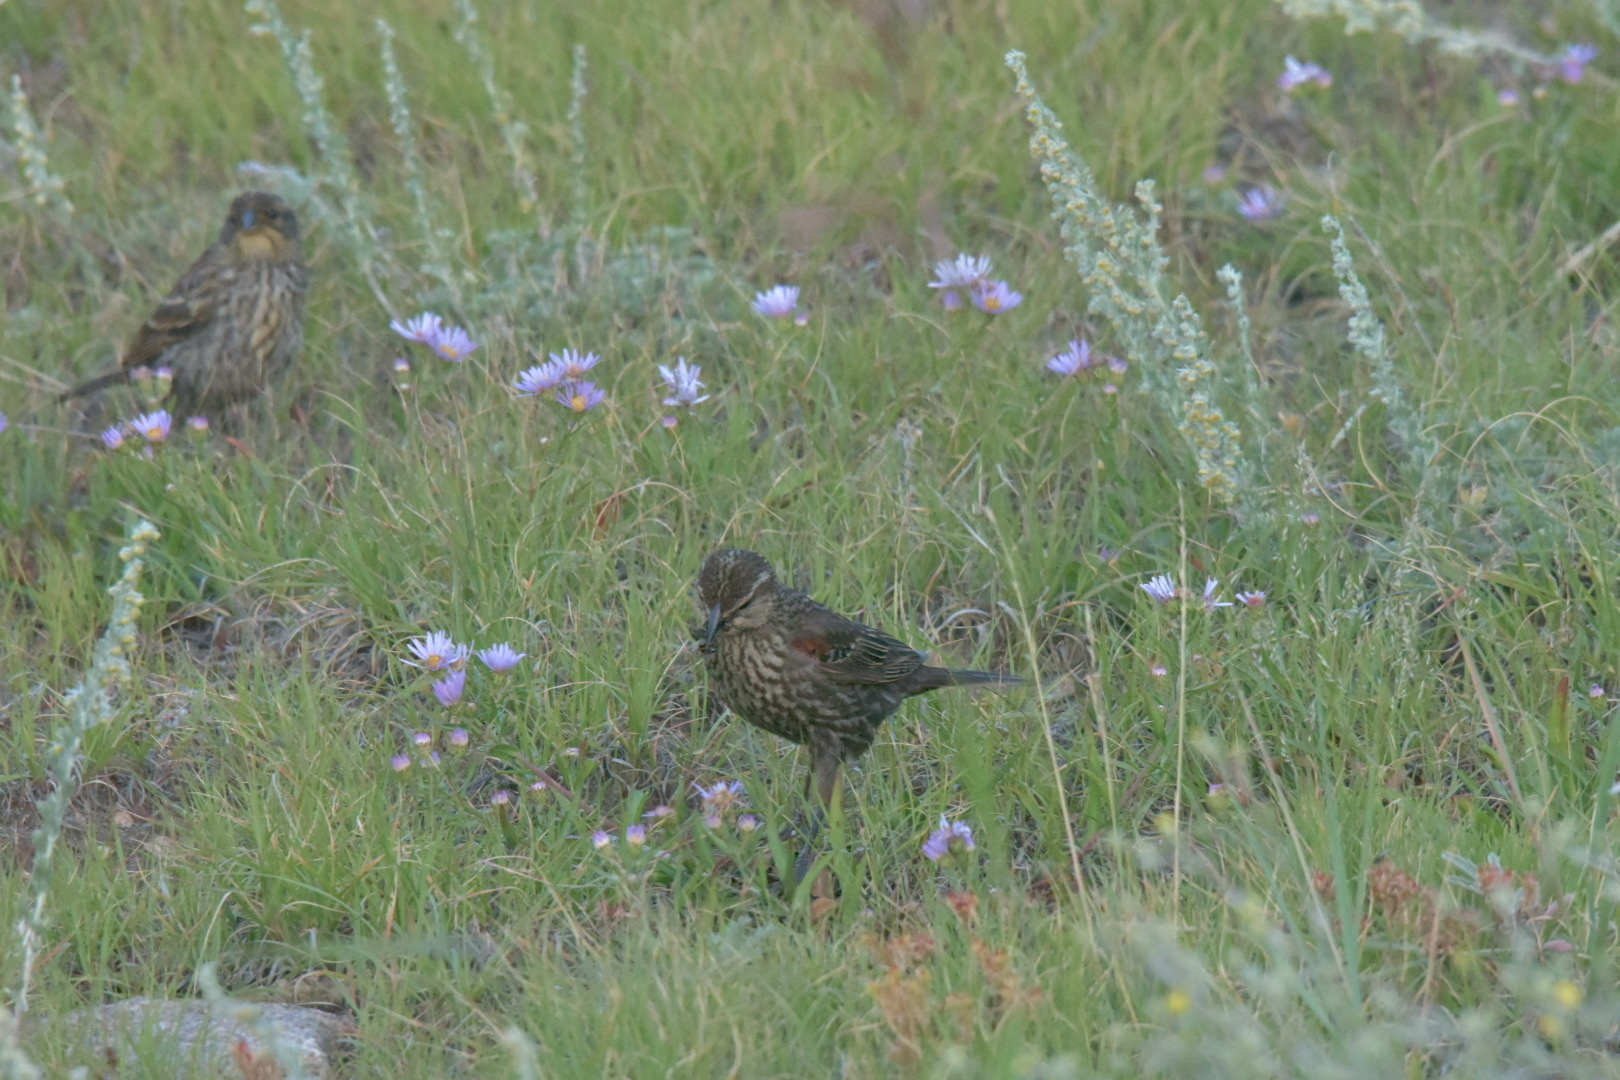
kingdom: Animalia
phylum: Chordata
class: Aves
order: Passeriformes
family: Icteridae
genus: Agelaius
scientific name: Agelaius phoeniceus
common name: Red-winged blackbird
